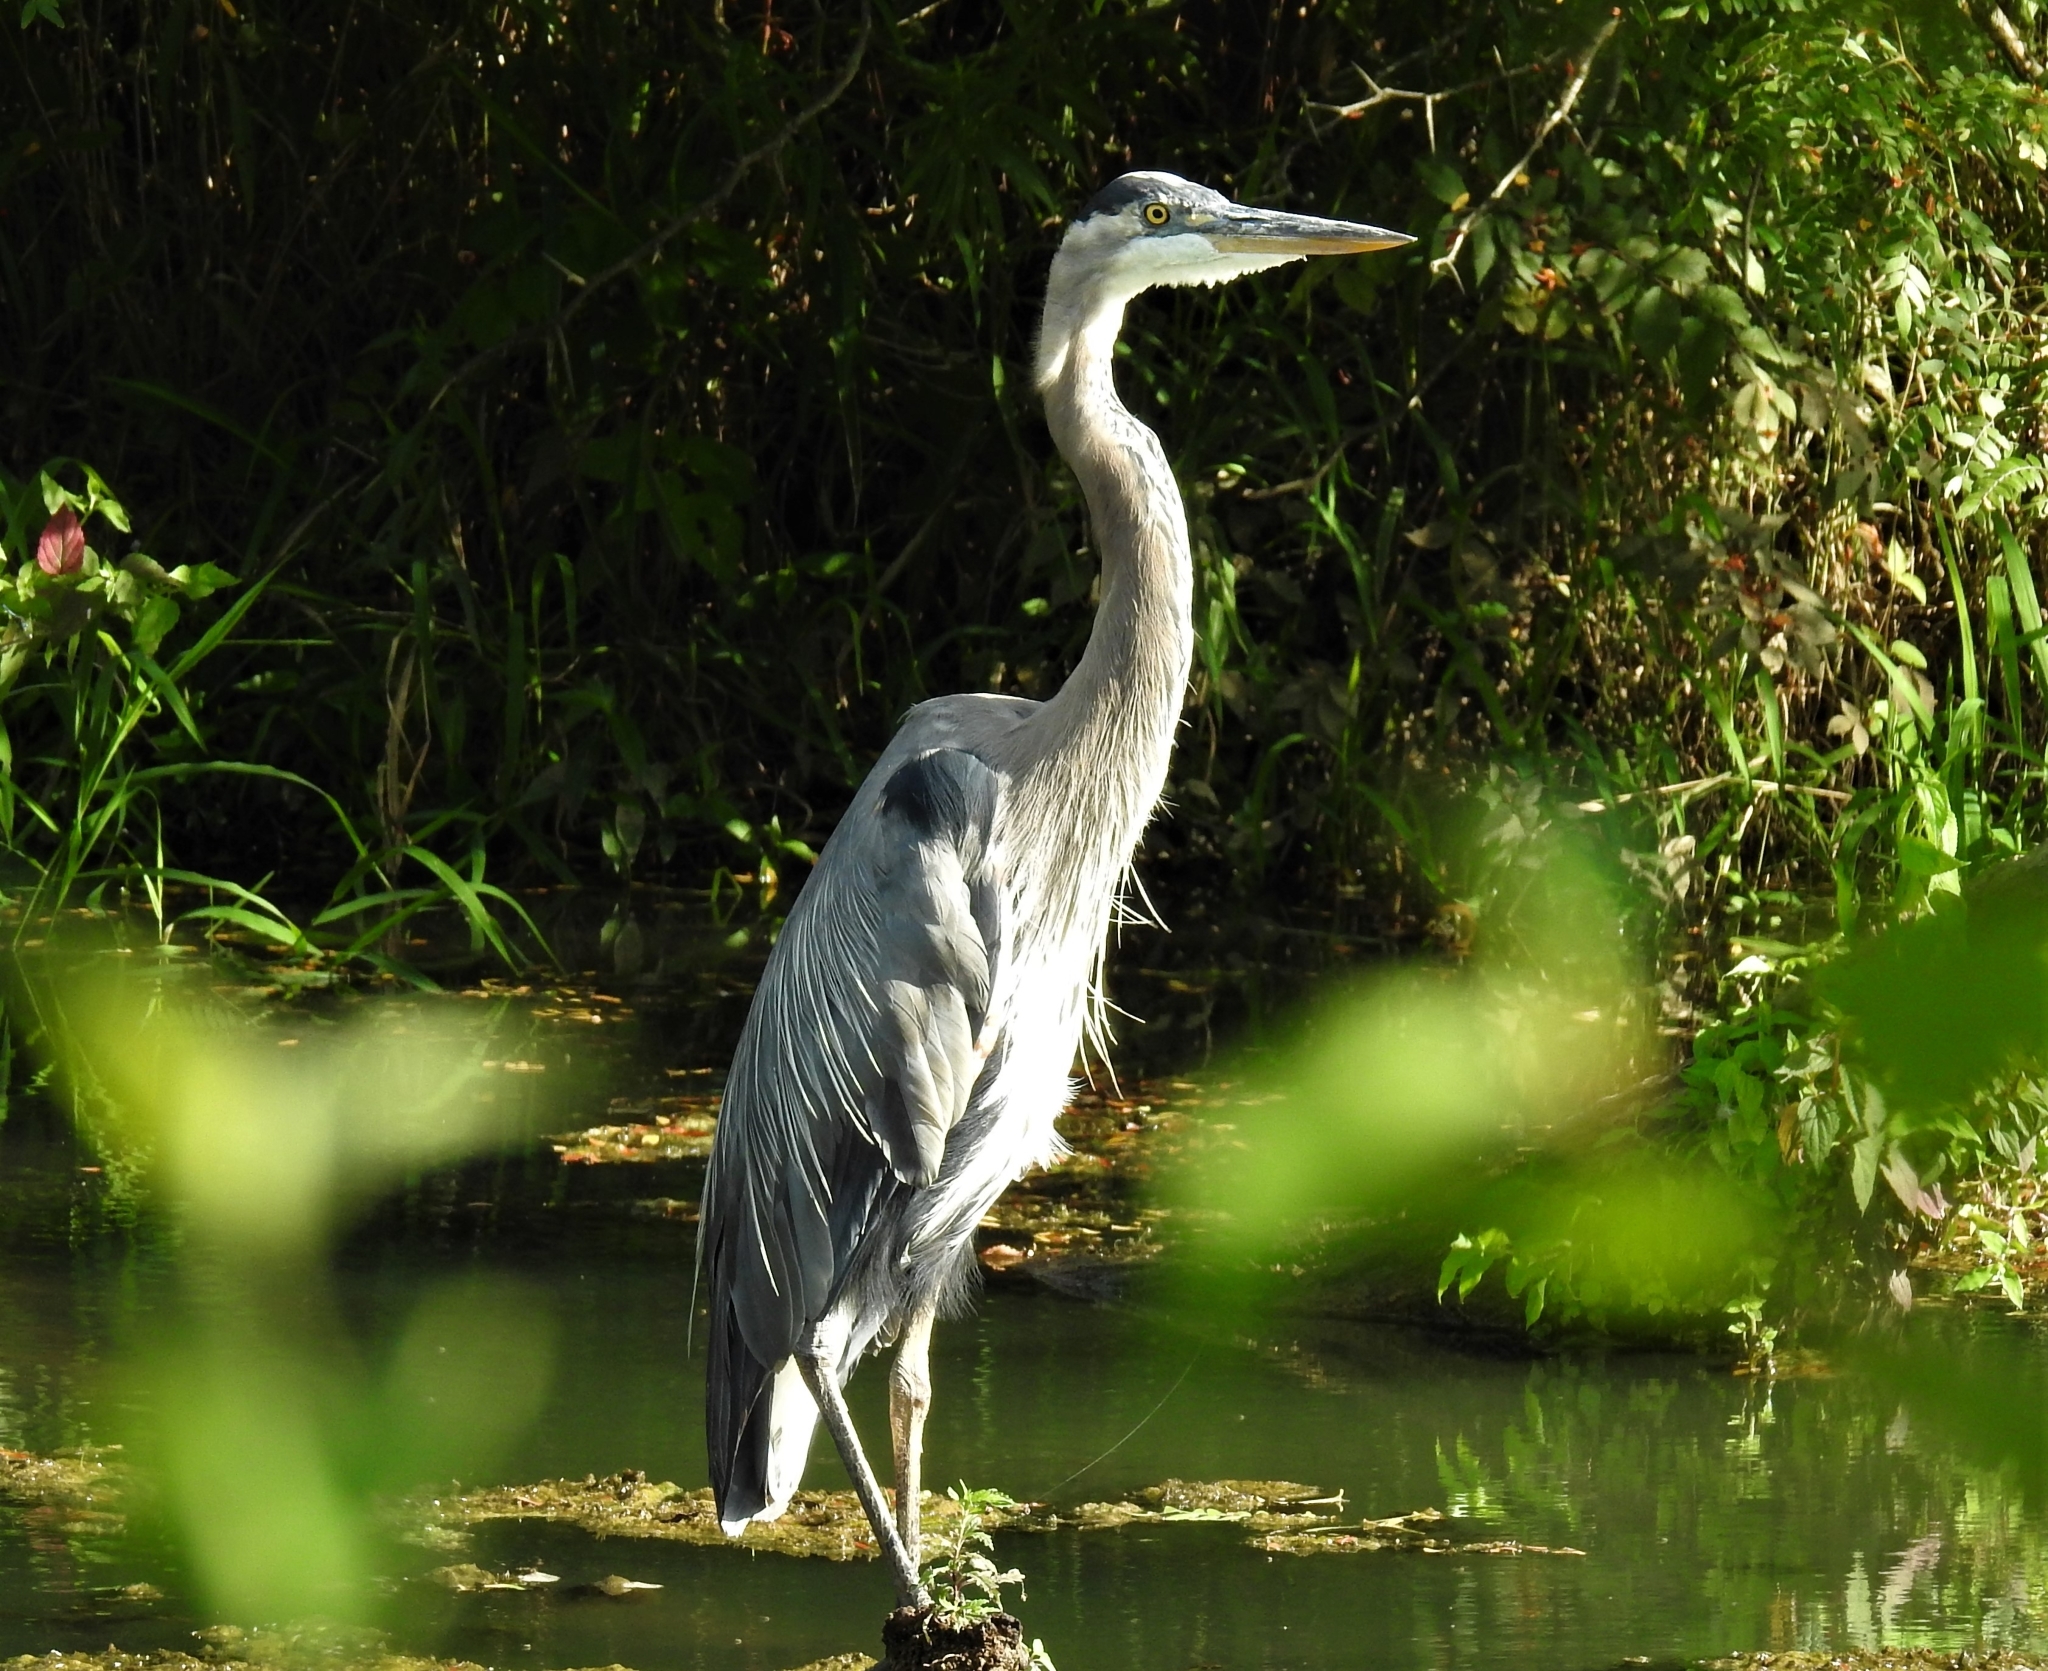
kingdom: Animalia
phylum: Chordata
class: Aves
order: Pelecaniformes
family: Ardeidae
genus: Ardea
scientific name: Ardea herodias
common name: Great blue heron
